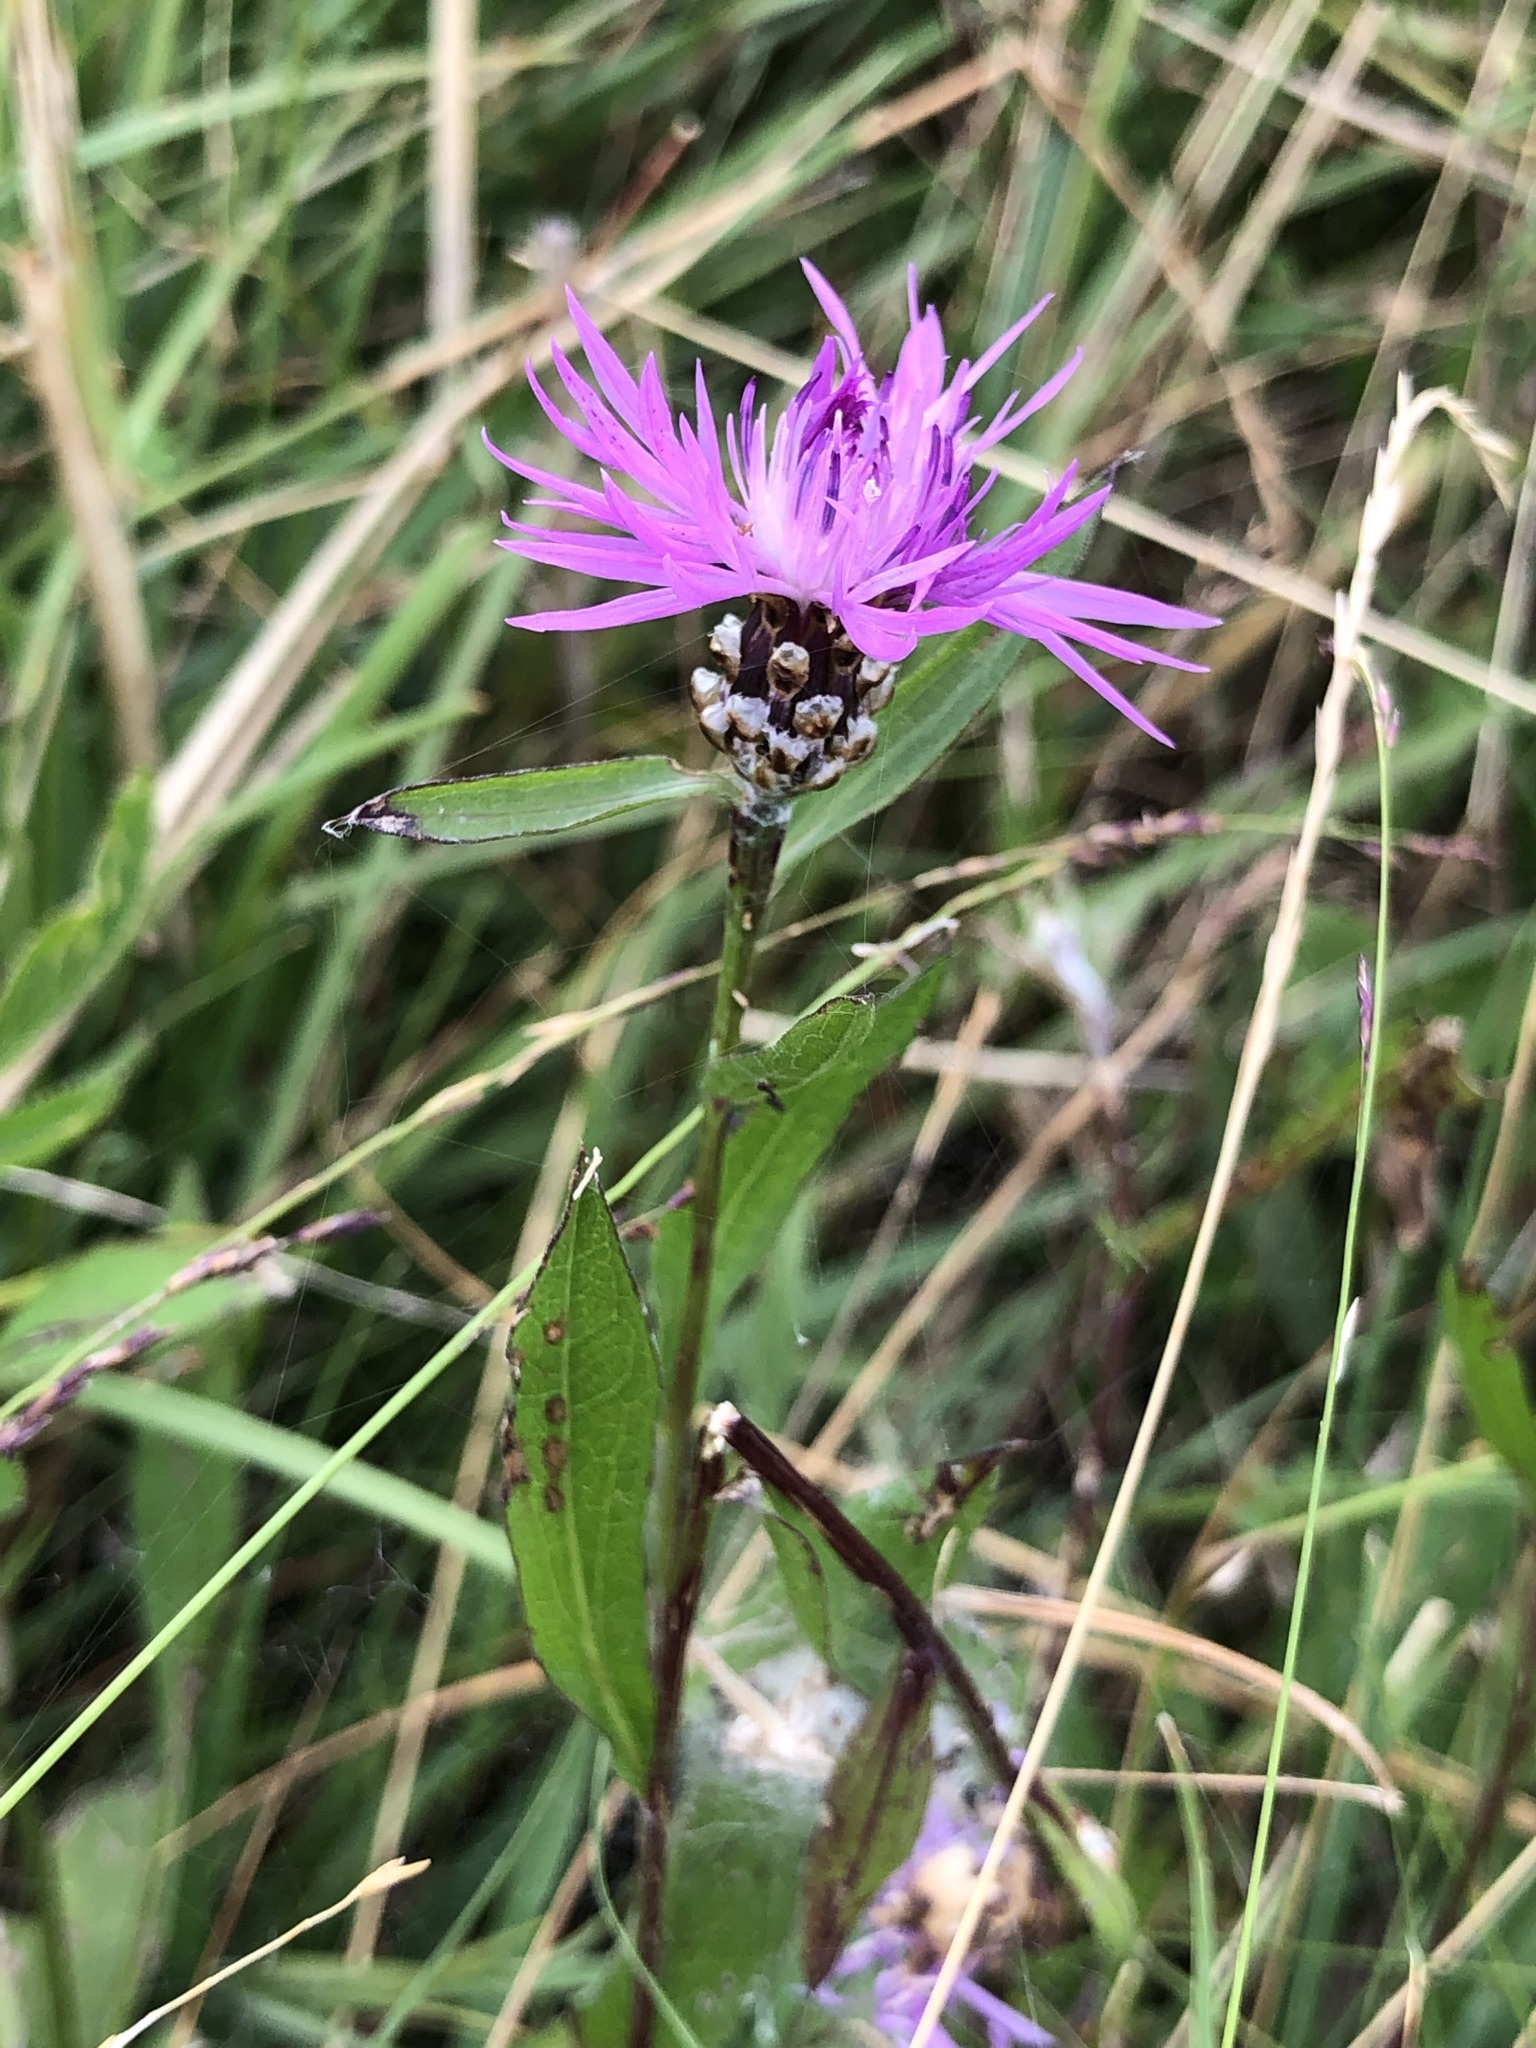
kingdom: Plantae
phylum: Tracheophyta
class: Magnoliopsida
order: Asterales
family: Asteraceae
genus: Centaurea
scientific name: Centaurea jacea
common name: Brown knapweed
